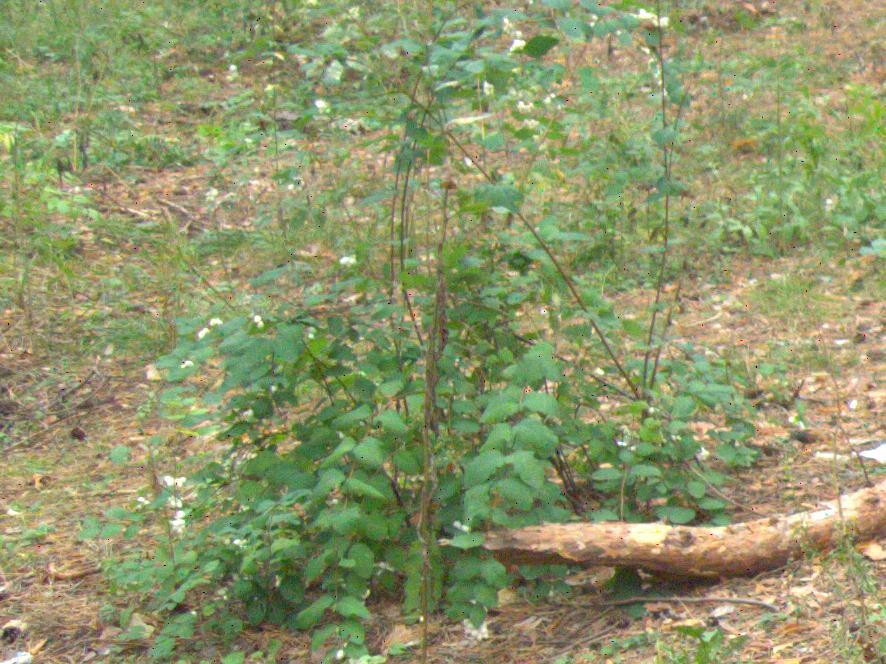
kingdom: Plantae
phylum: Tracheophyta
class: Magnoliopsida
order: Dipsacales
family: Caprifoliaceae
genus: Symphoricarpos
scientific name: Symphoricarpos albus
